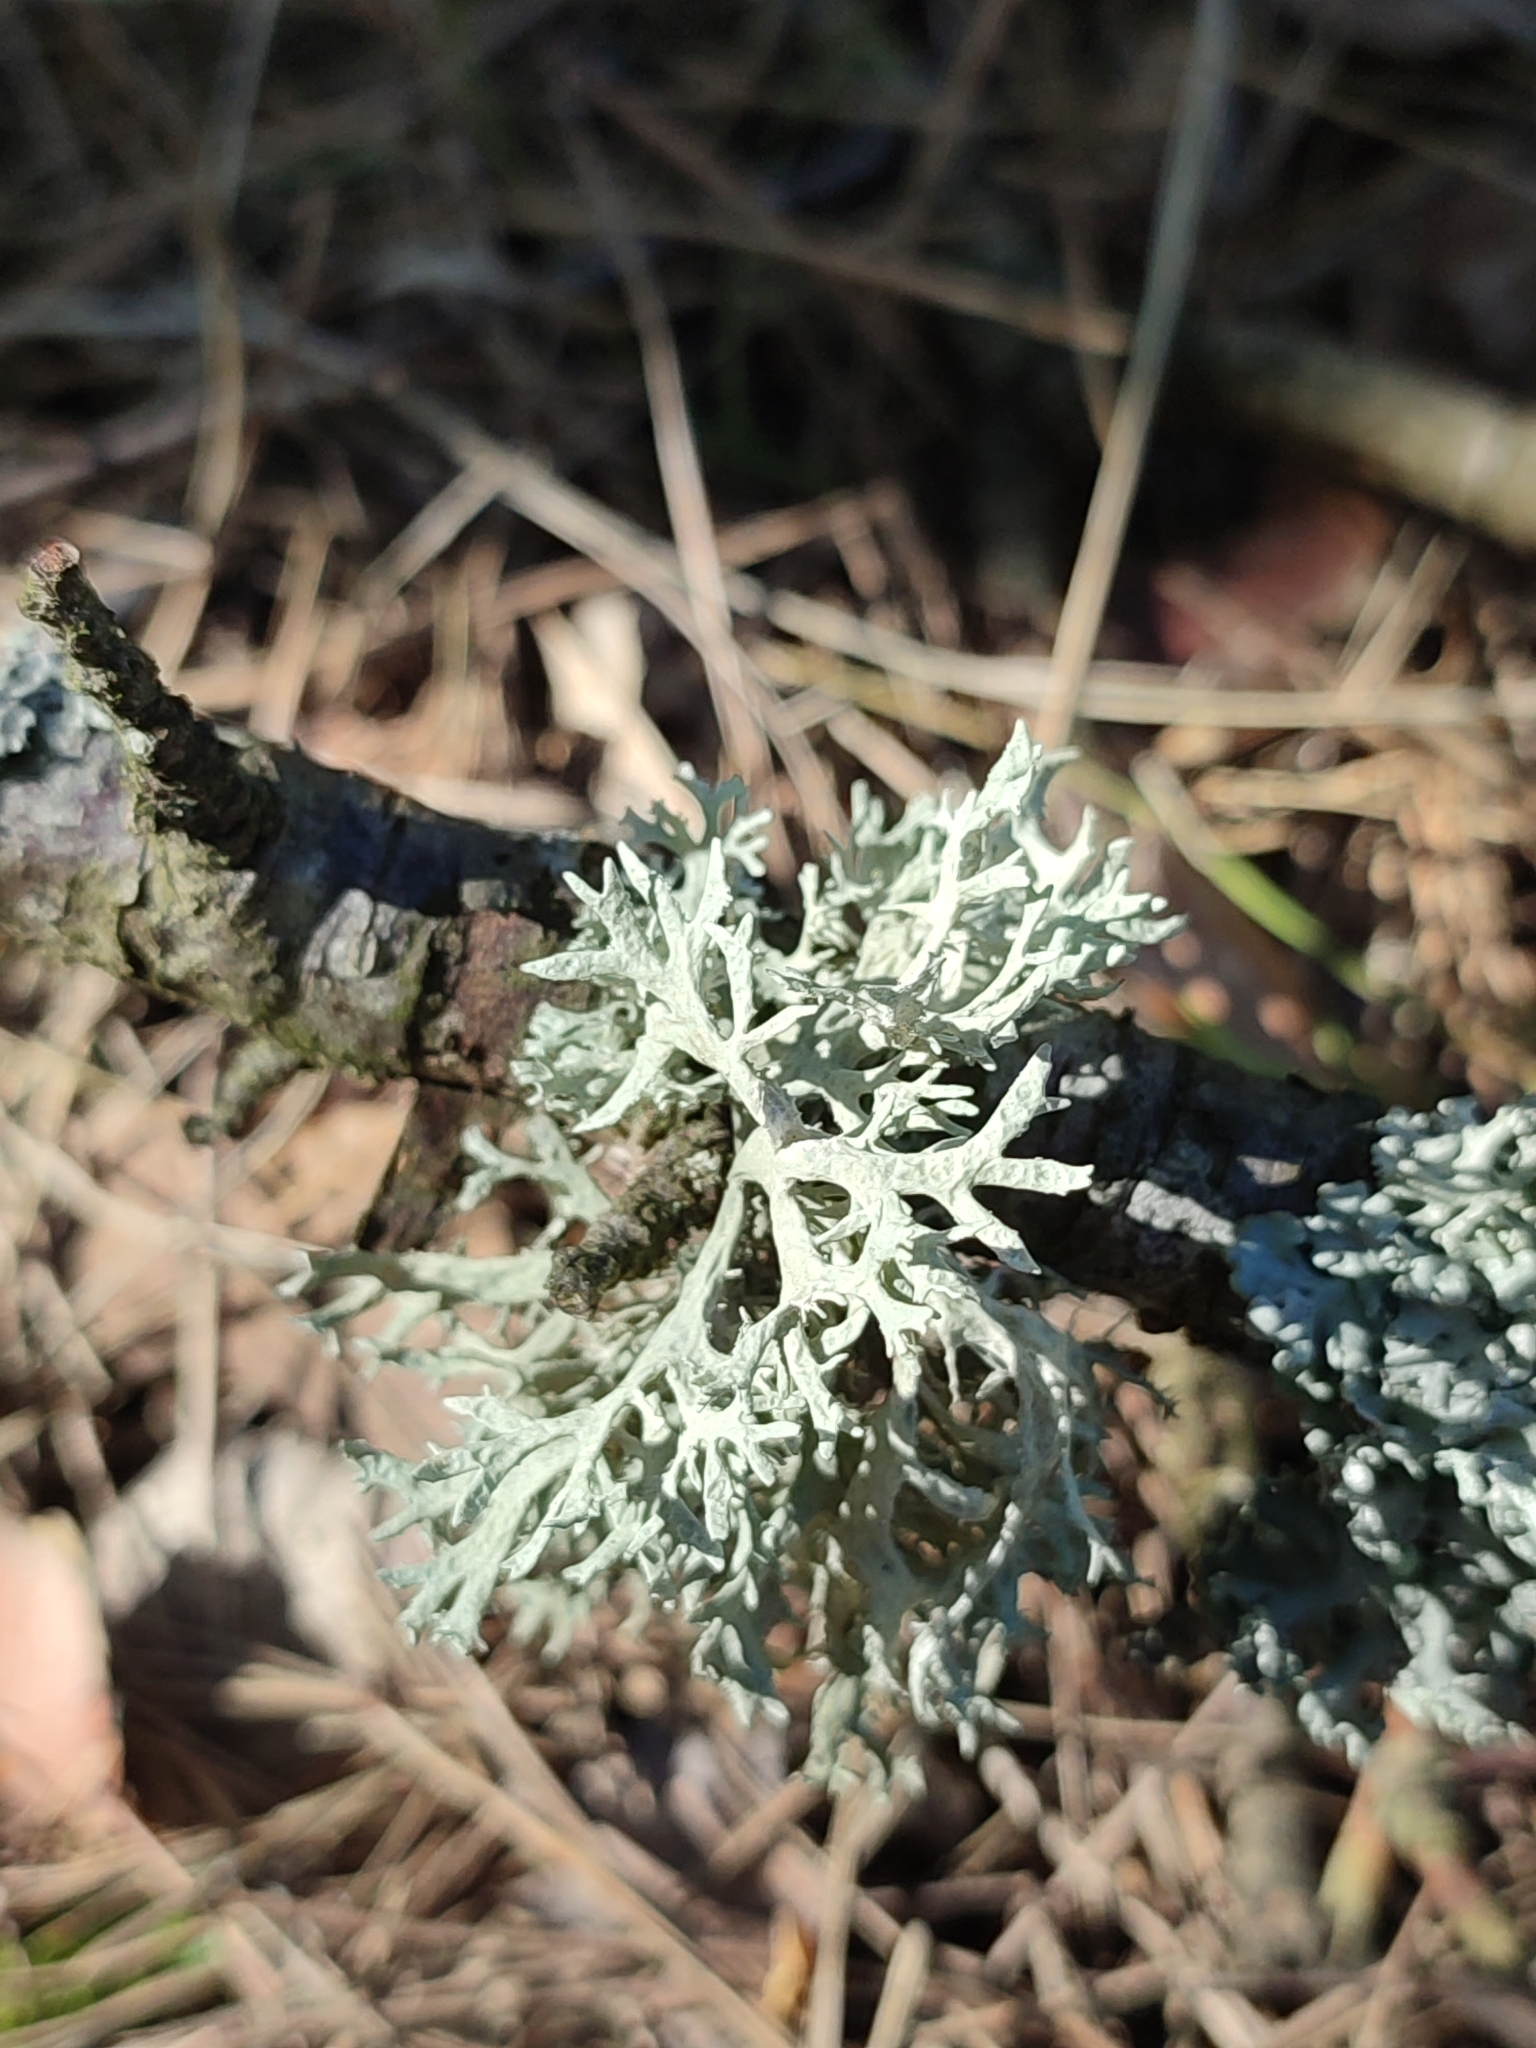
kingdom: Fungi
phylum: Ascomycota
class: Lecanoromycetes
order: Lecanorales
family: Parmeliaceae
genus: Evernia
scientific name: Evernia prunastri
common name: Oak moss
